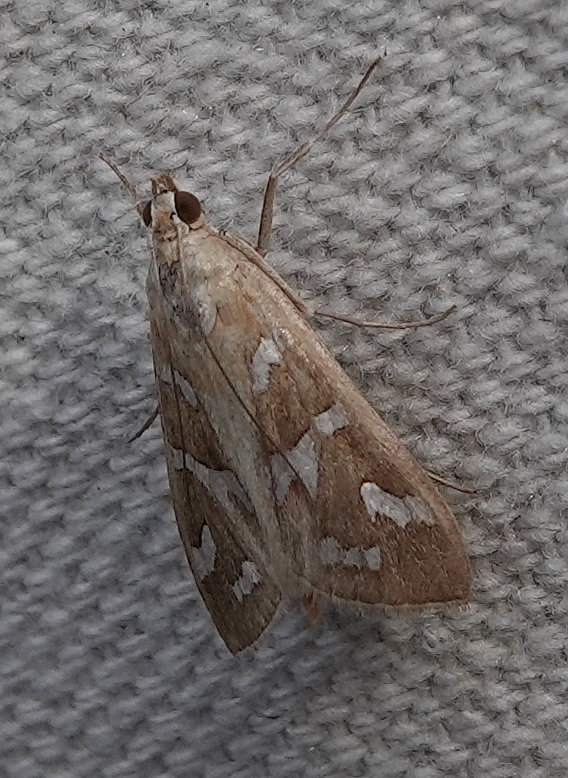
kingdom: Animalia
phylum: Arthropoda
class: Insecta
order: Lepidoptera
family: Crambidae
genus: Diastictis
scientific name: Diastictis fracturalis
